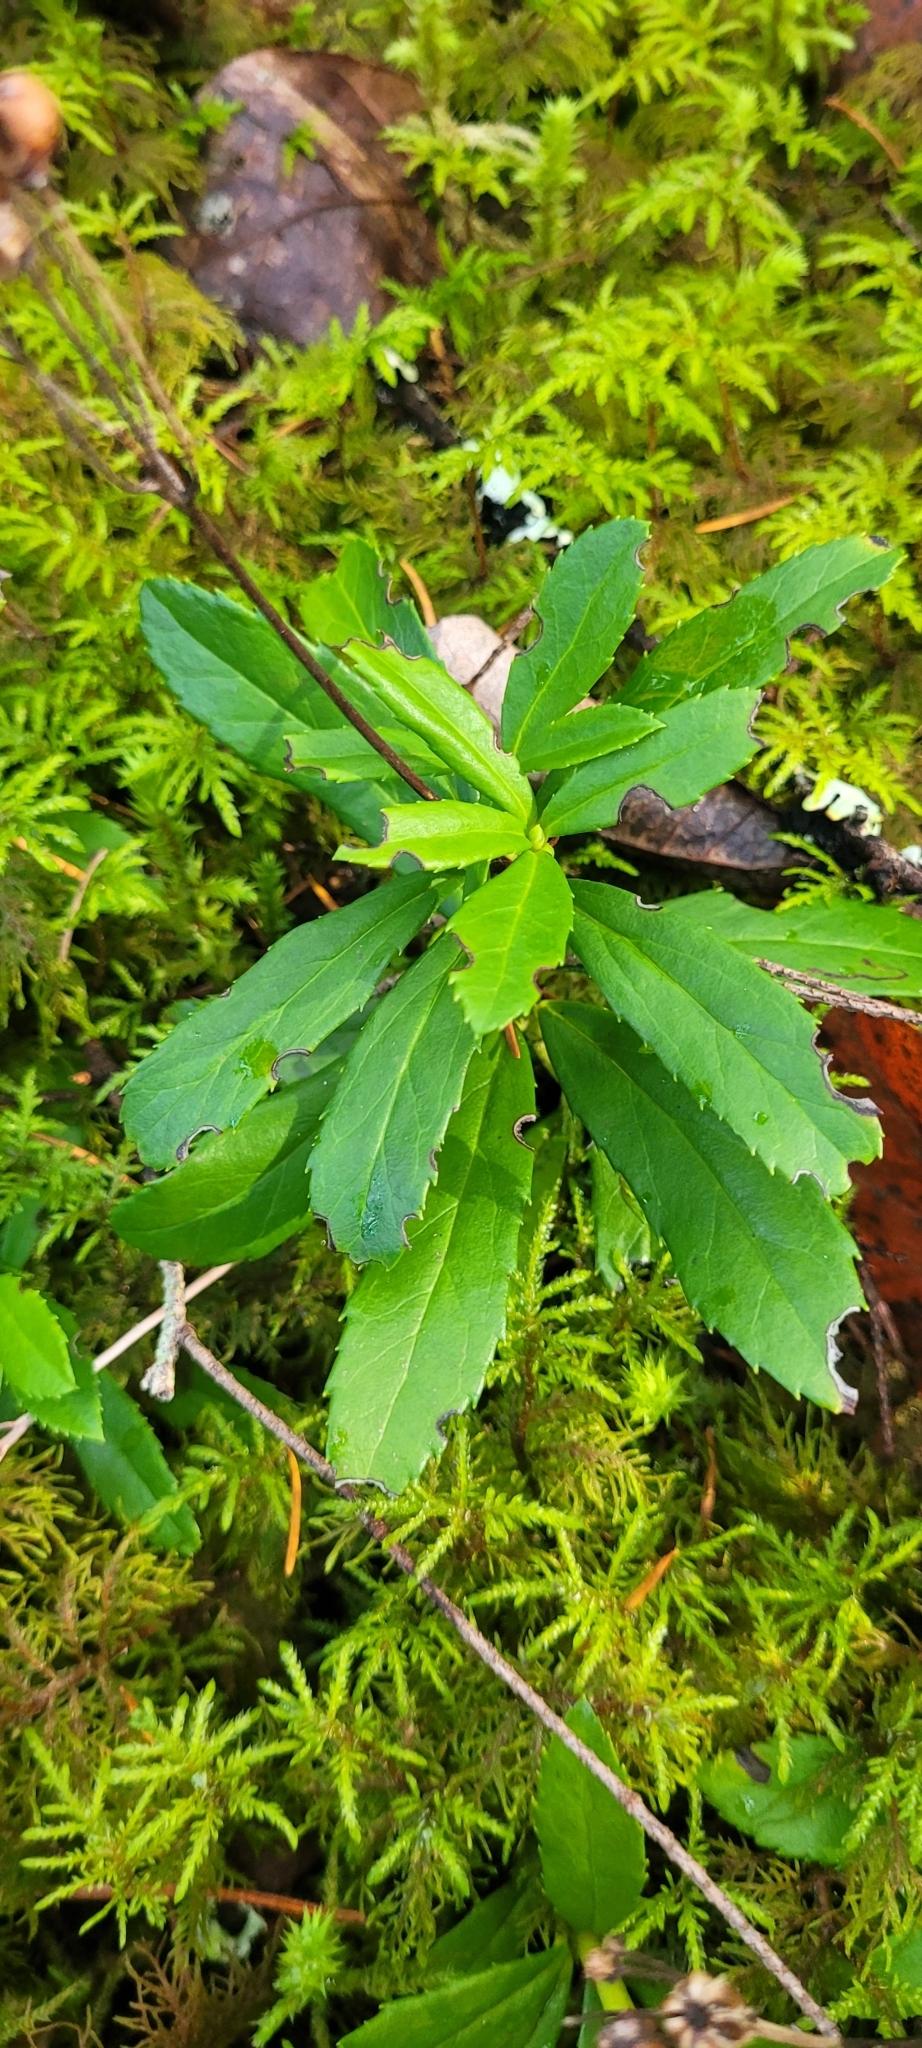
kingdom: Plantae
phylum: Tracheophyta
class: Magnoliopsida
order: Ericales
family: Ericaceae
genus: Chimaphila
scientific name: Chimaphila umbellata
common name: Pipsissewa
